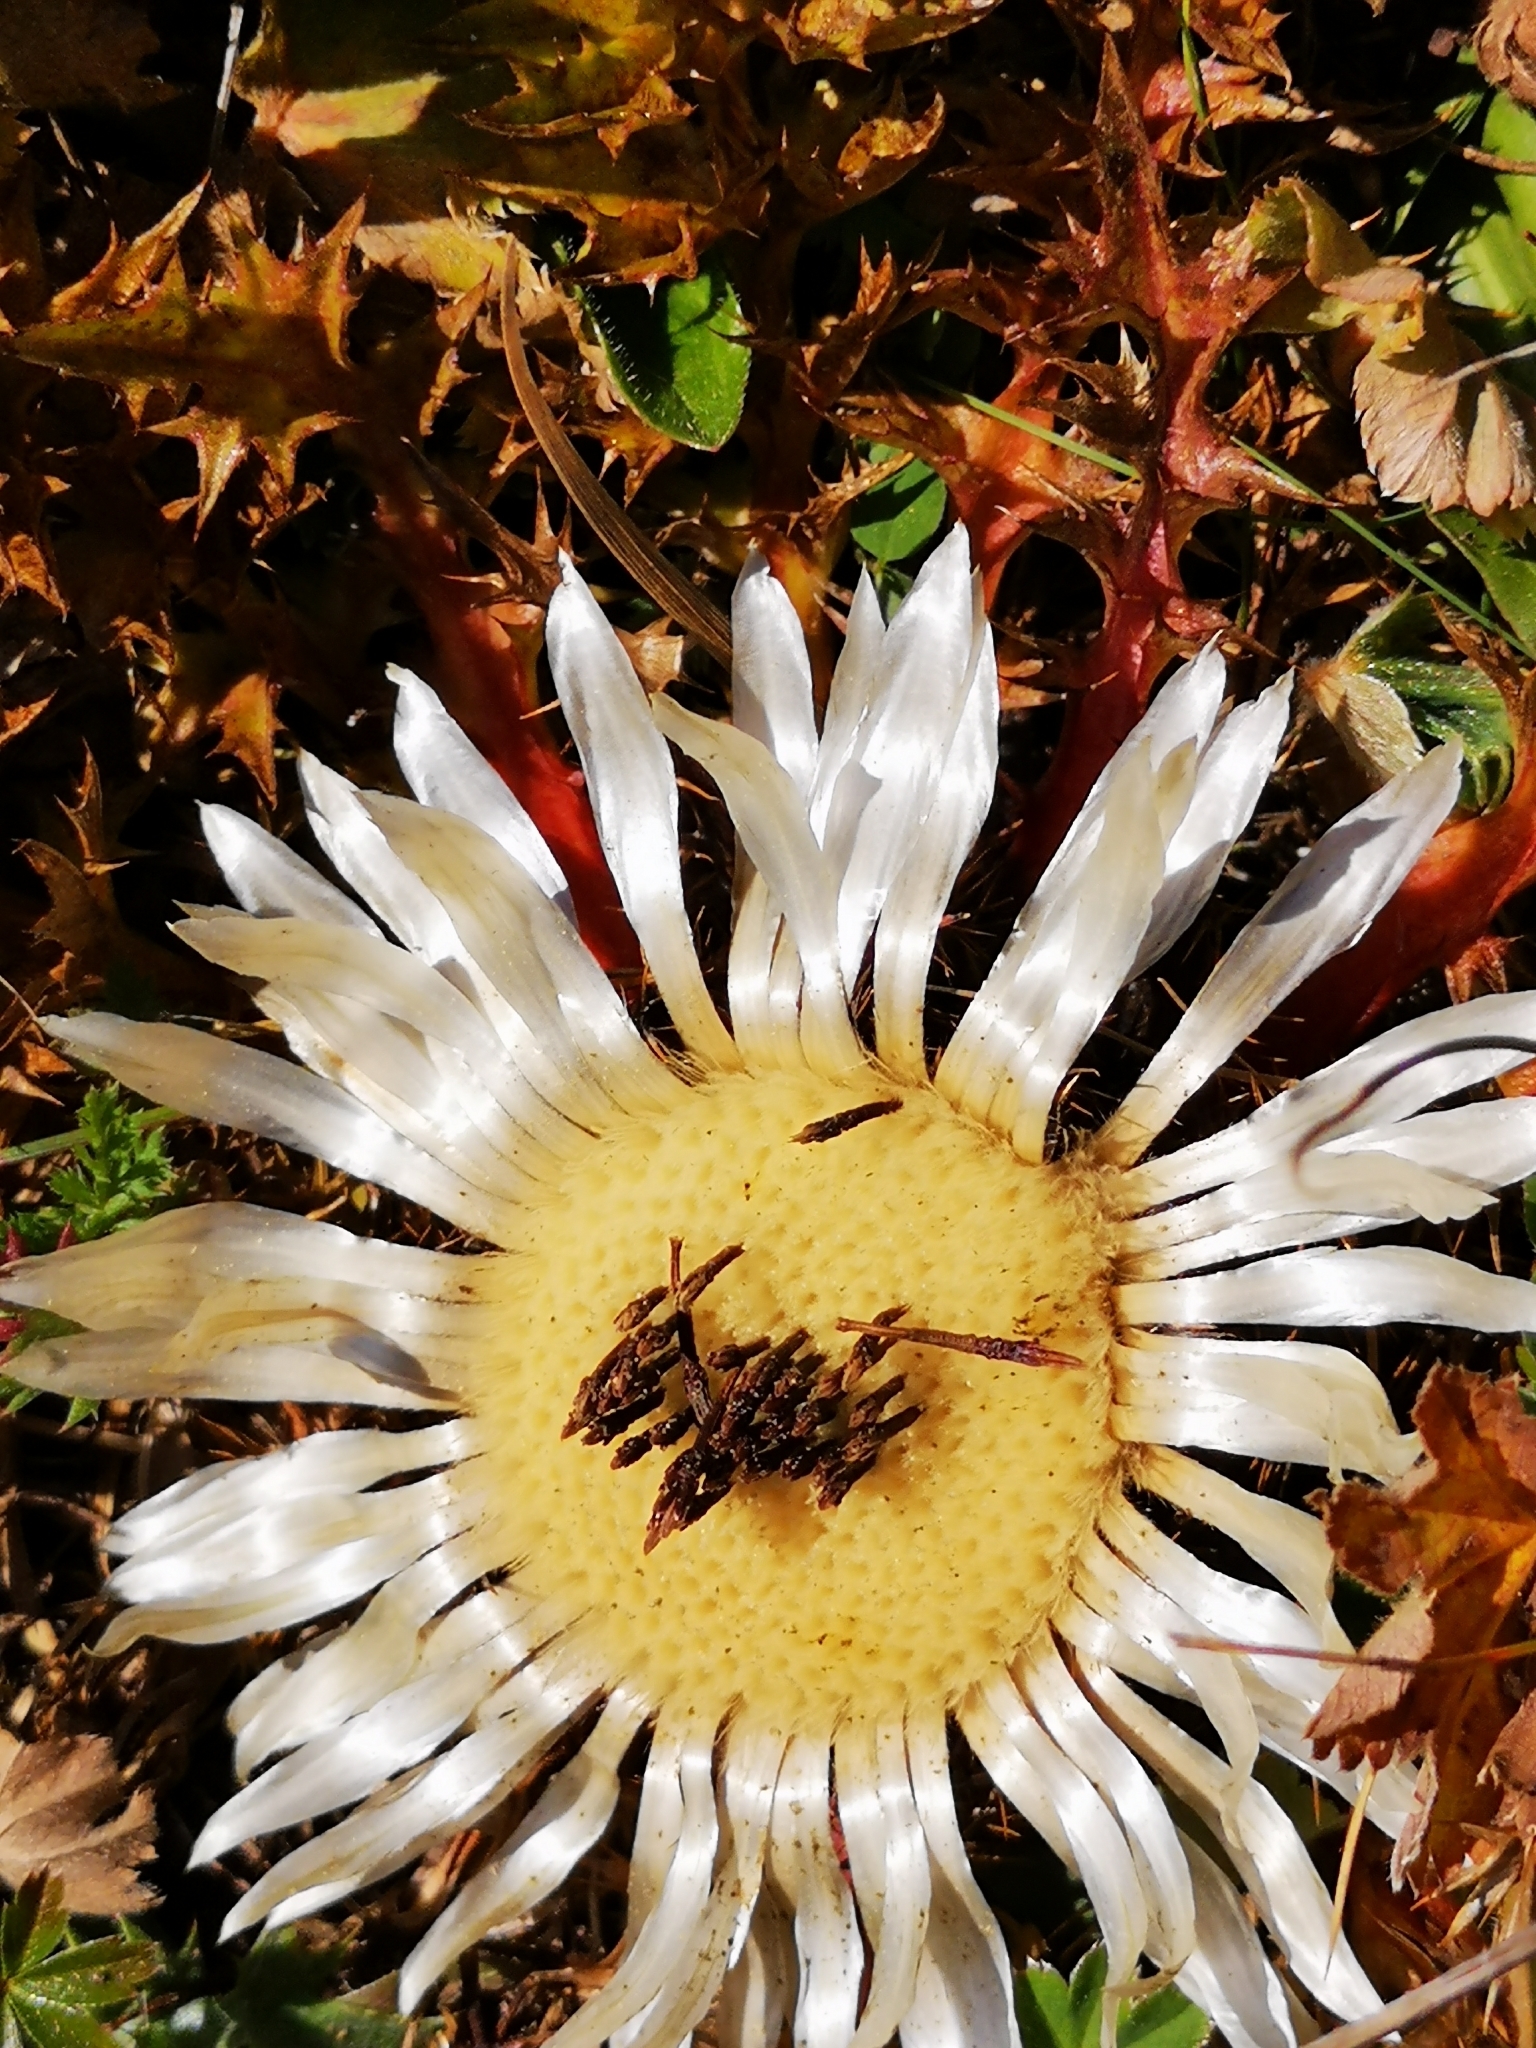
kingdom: Plantae
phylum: Tracheophyta
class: Magnoliopsida
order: Asterales
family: Asteraceae
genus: Carlina
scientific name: Carlina acaulis
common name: Stemless carline thistle
